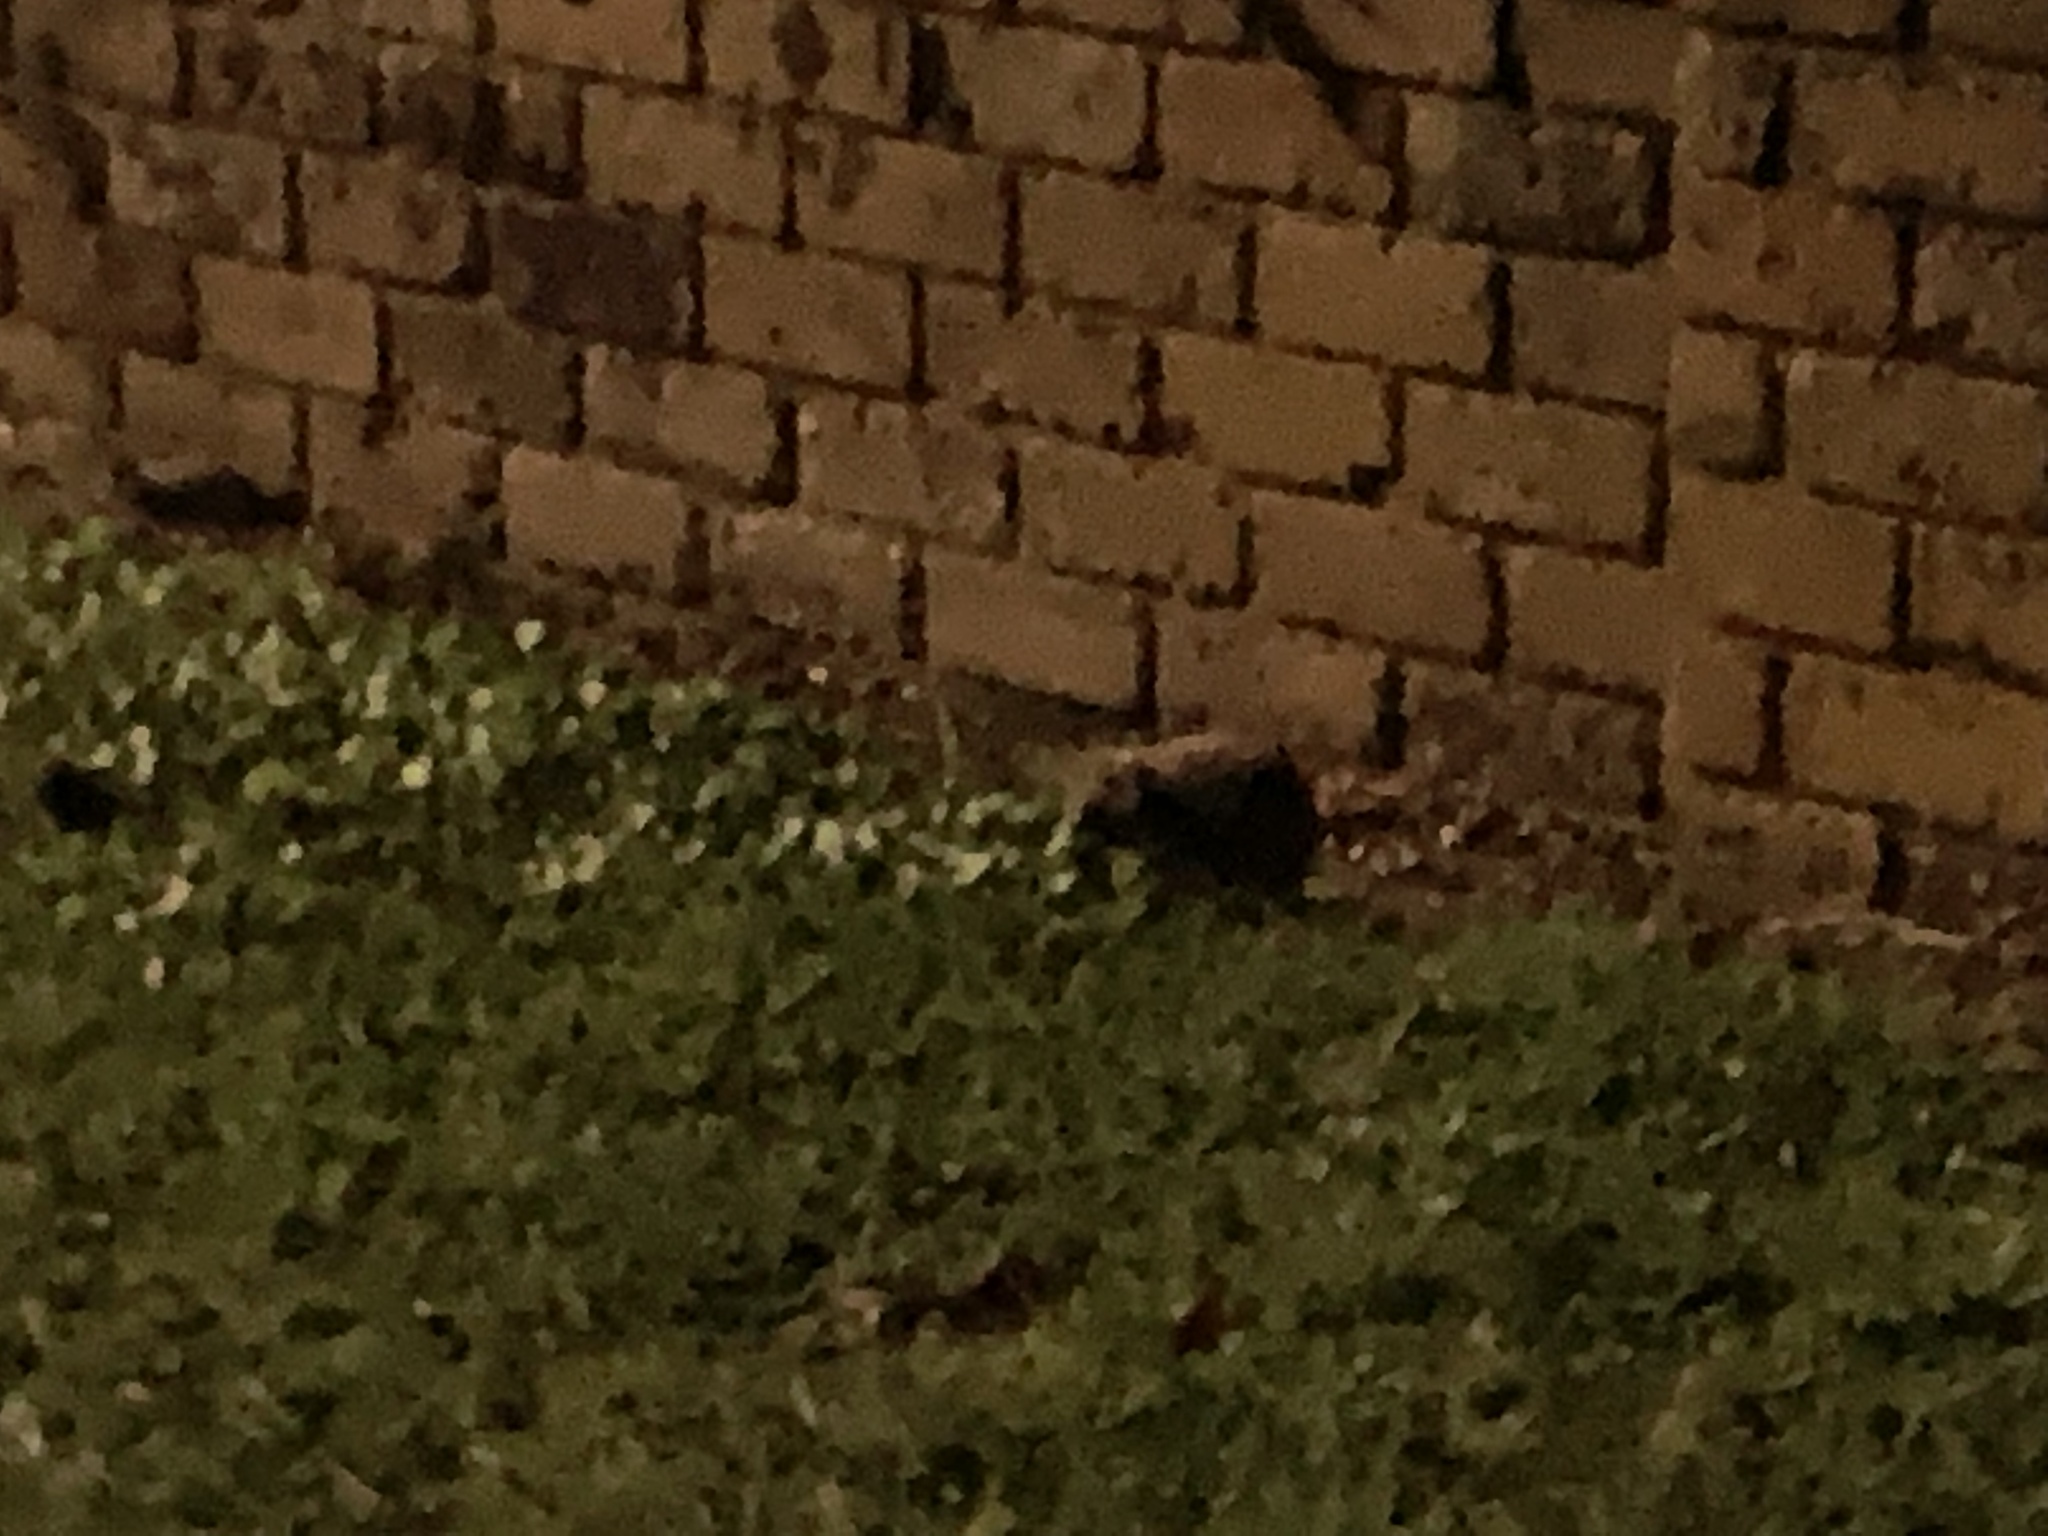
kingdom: Animalia
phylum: Chordata
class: Mammalia
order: Erinaceomorpha
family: Erinaceidae
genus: Erinaceus
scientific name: Erinaceus europaeus
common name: West european hedgehog
